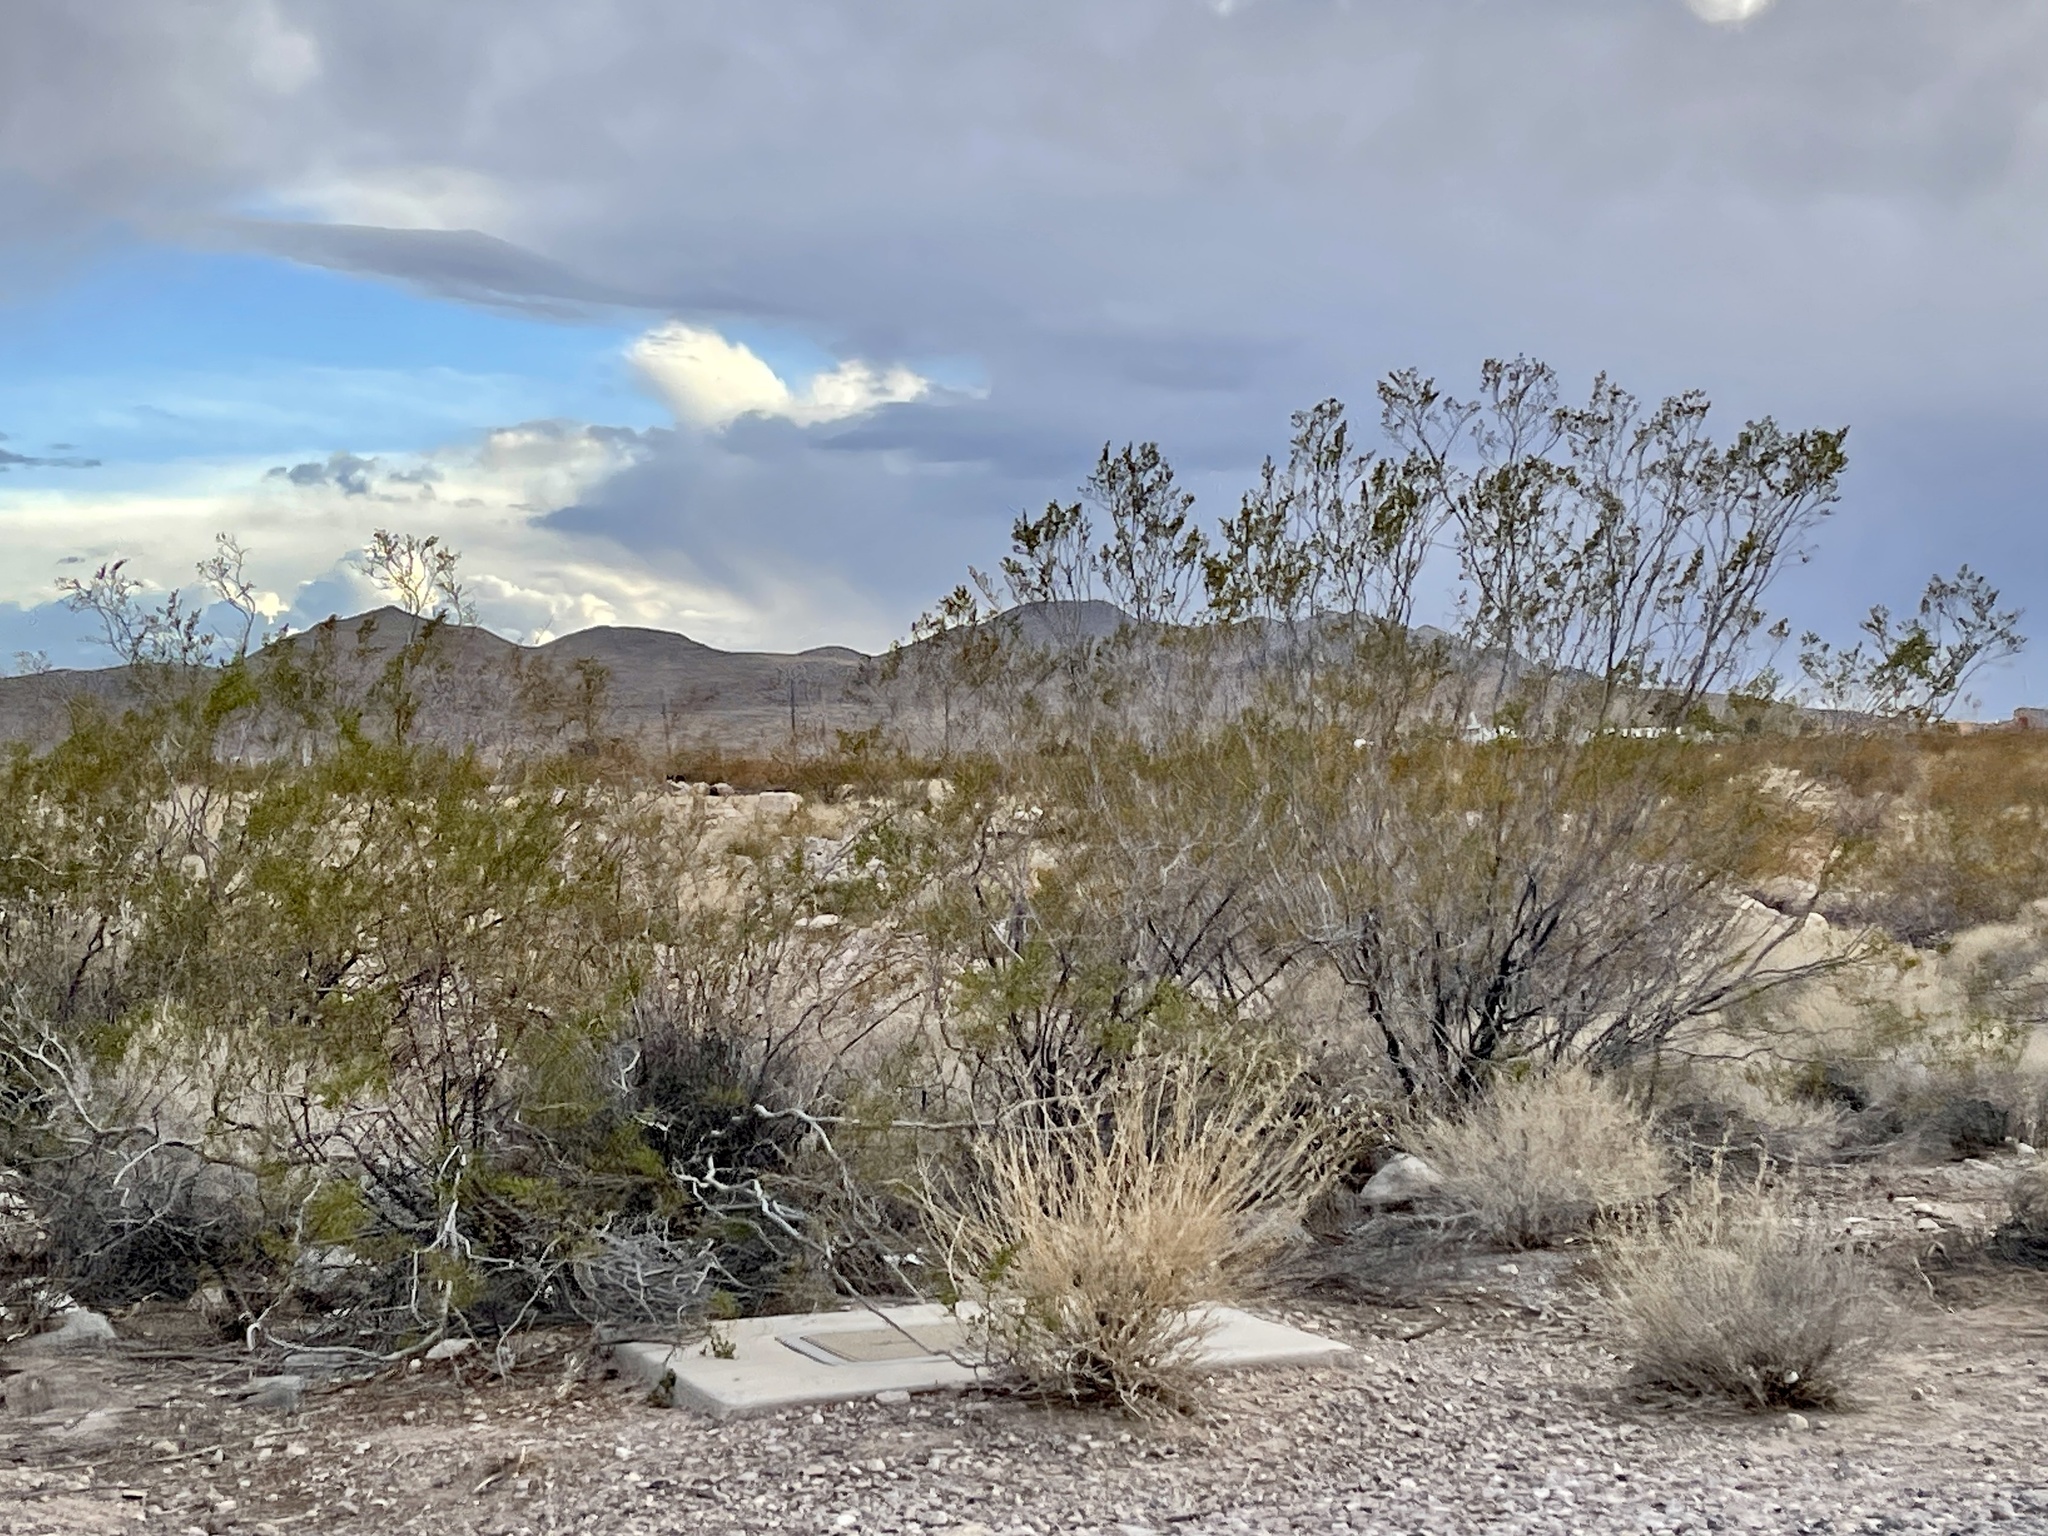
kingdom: Plantae
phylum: Tracheophyta
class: Magnoliopsida
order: Zygophyllales
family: Zygophyllaceae
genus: Larrea
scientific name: Larrea tridentata
